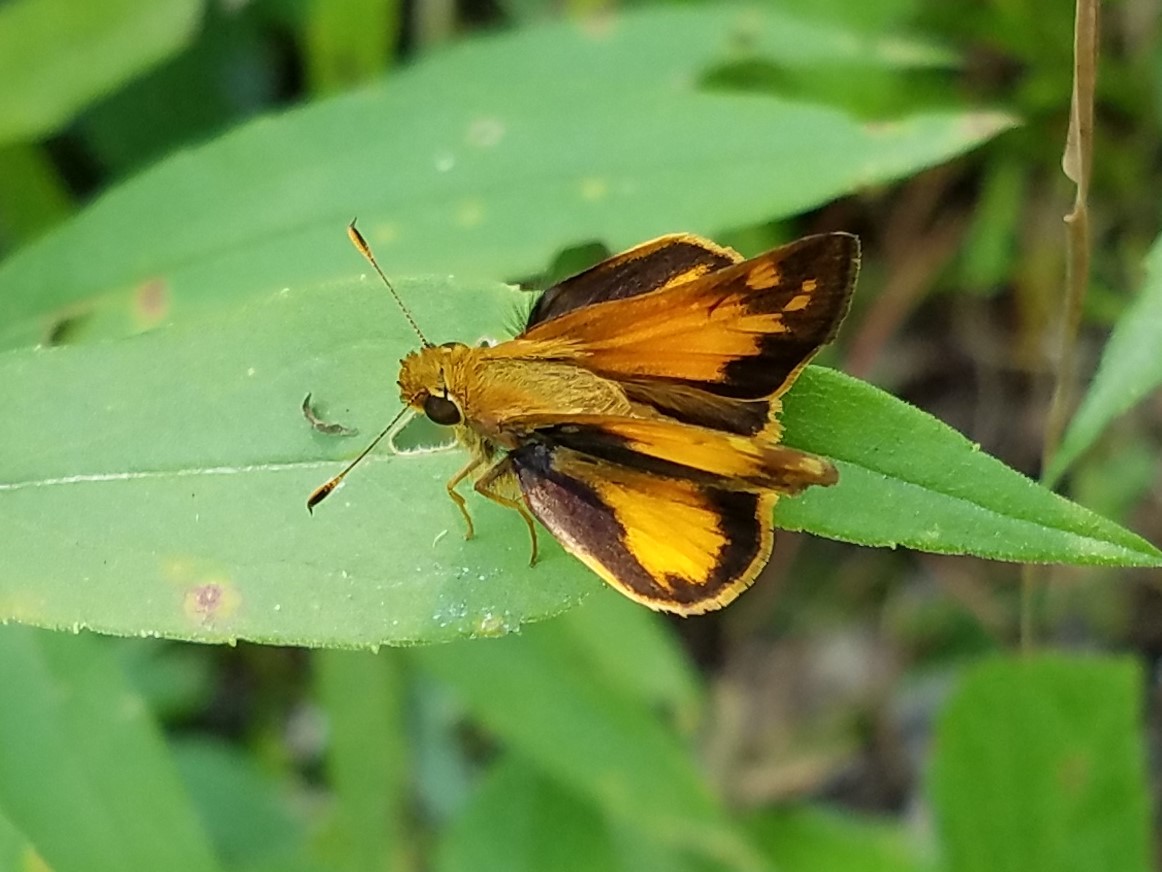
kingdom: Animalia
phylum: Arthropoda
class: Insecta
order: Lepidoptera
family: Hesperiidae
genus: Lon
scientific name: Lon zabulon
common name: Zabulon skipper
